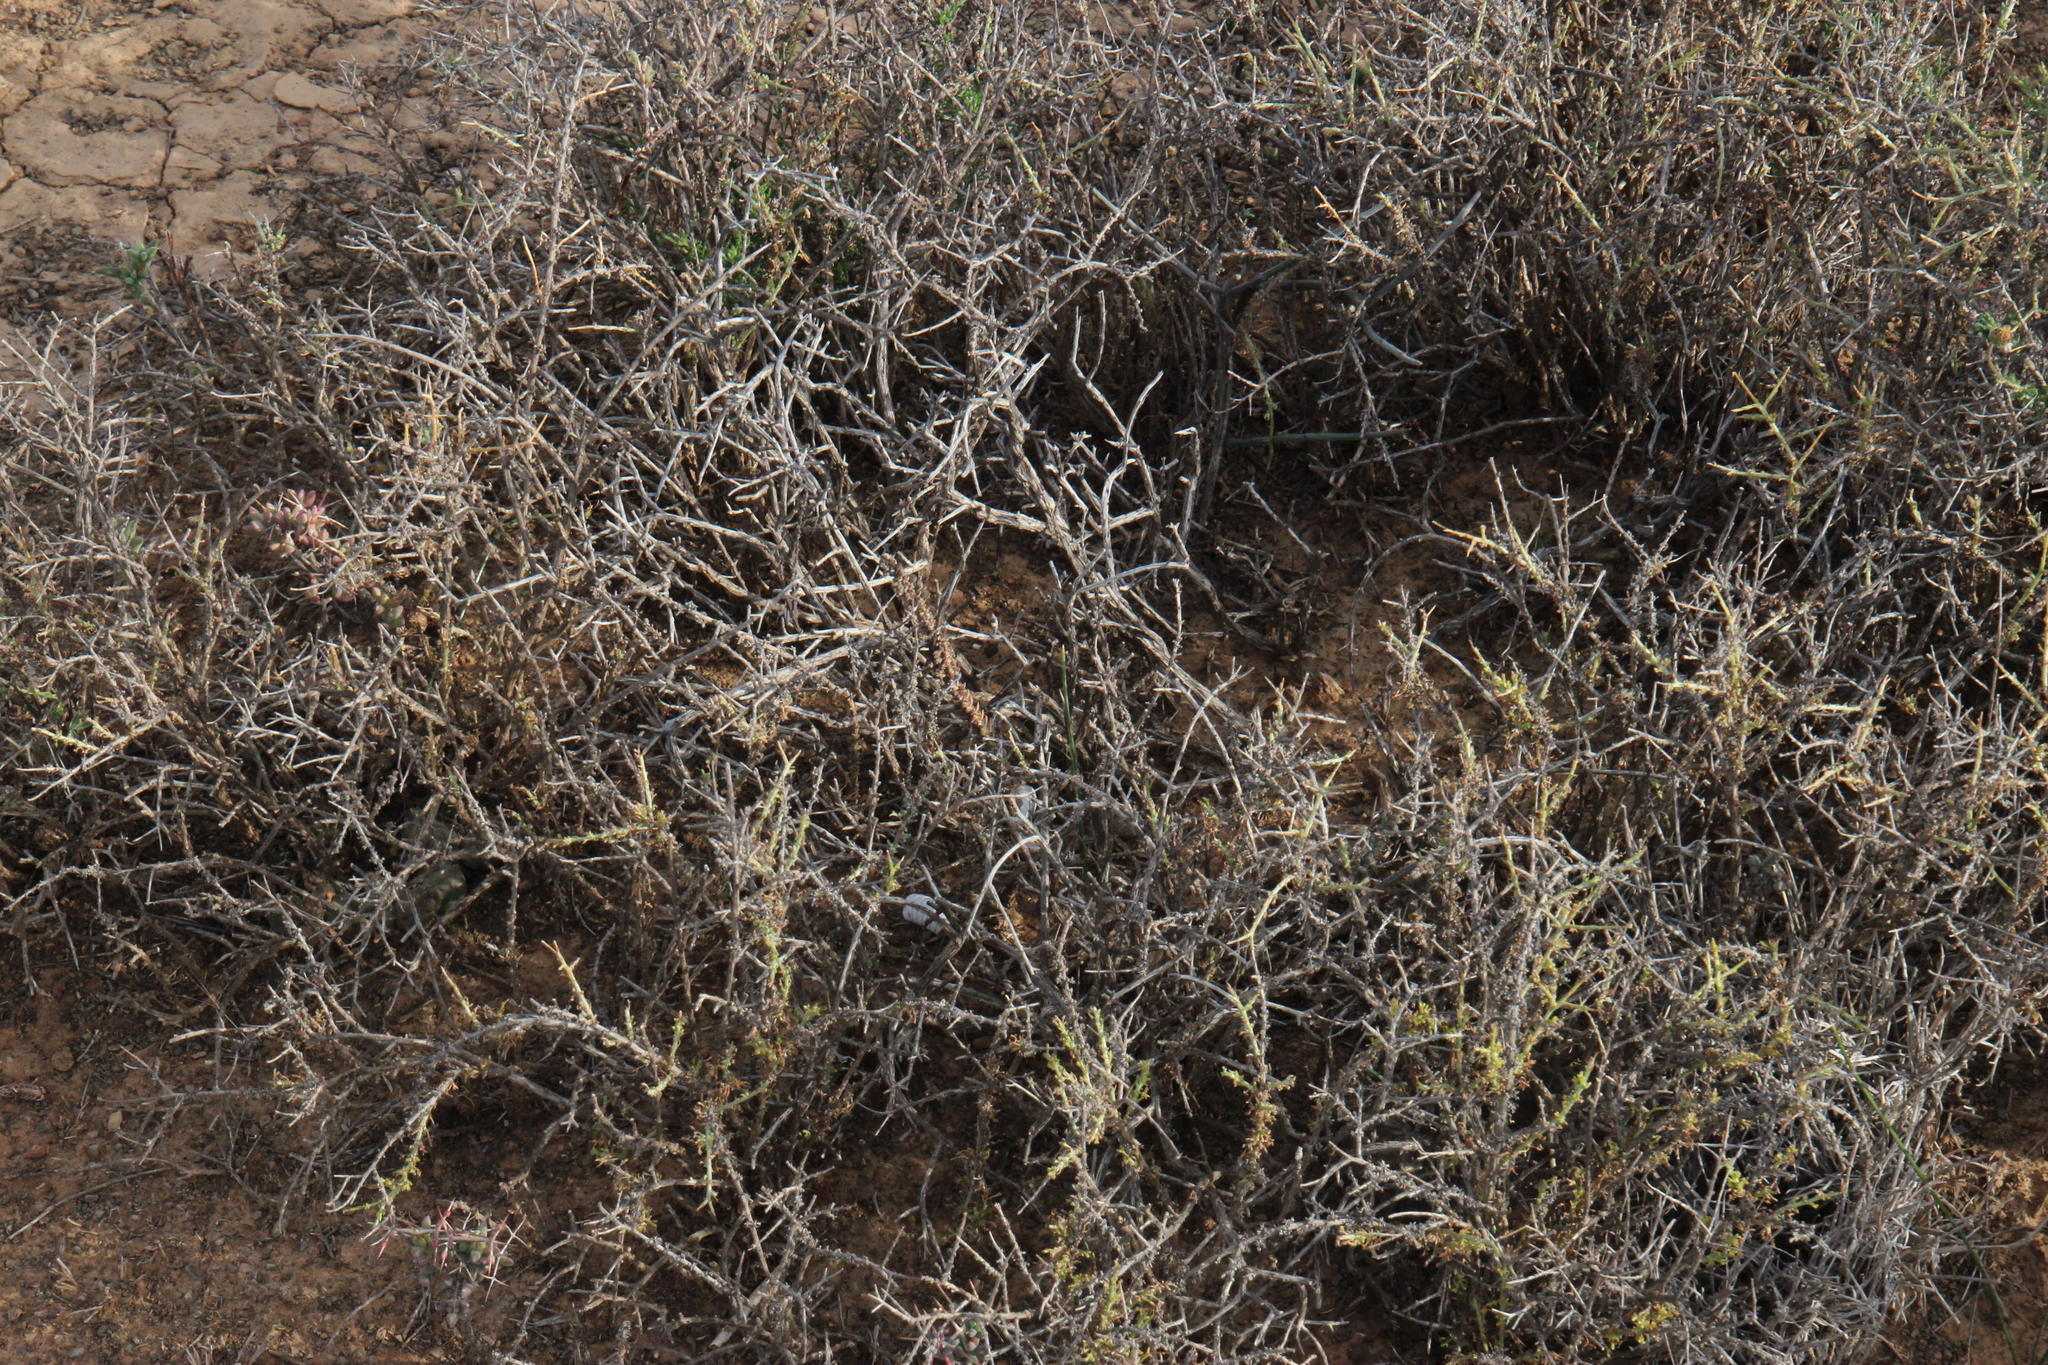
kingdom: Plantae
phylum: Tracheophyta
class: Magnoliopsida
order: Saxifragales
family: Crassulaceae
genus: Crassula
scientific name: Crassula muscosa
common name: Toy-cypress
